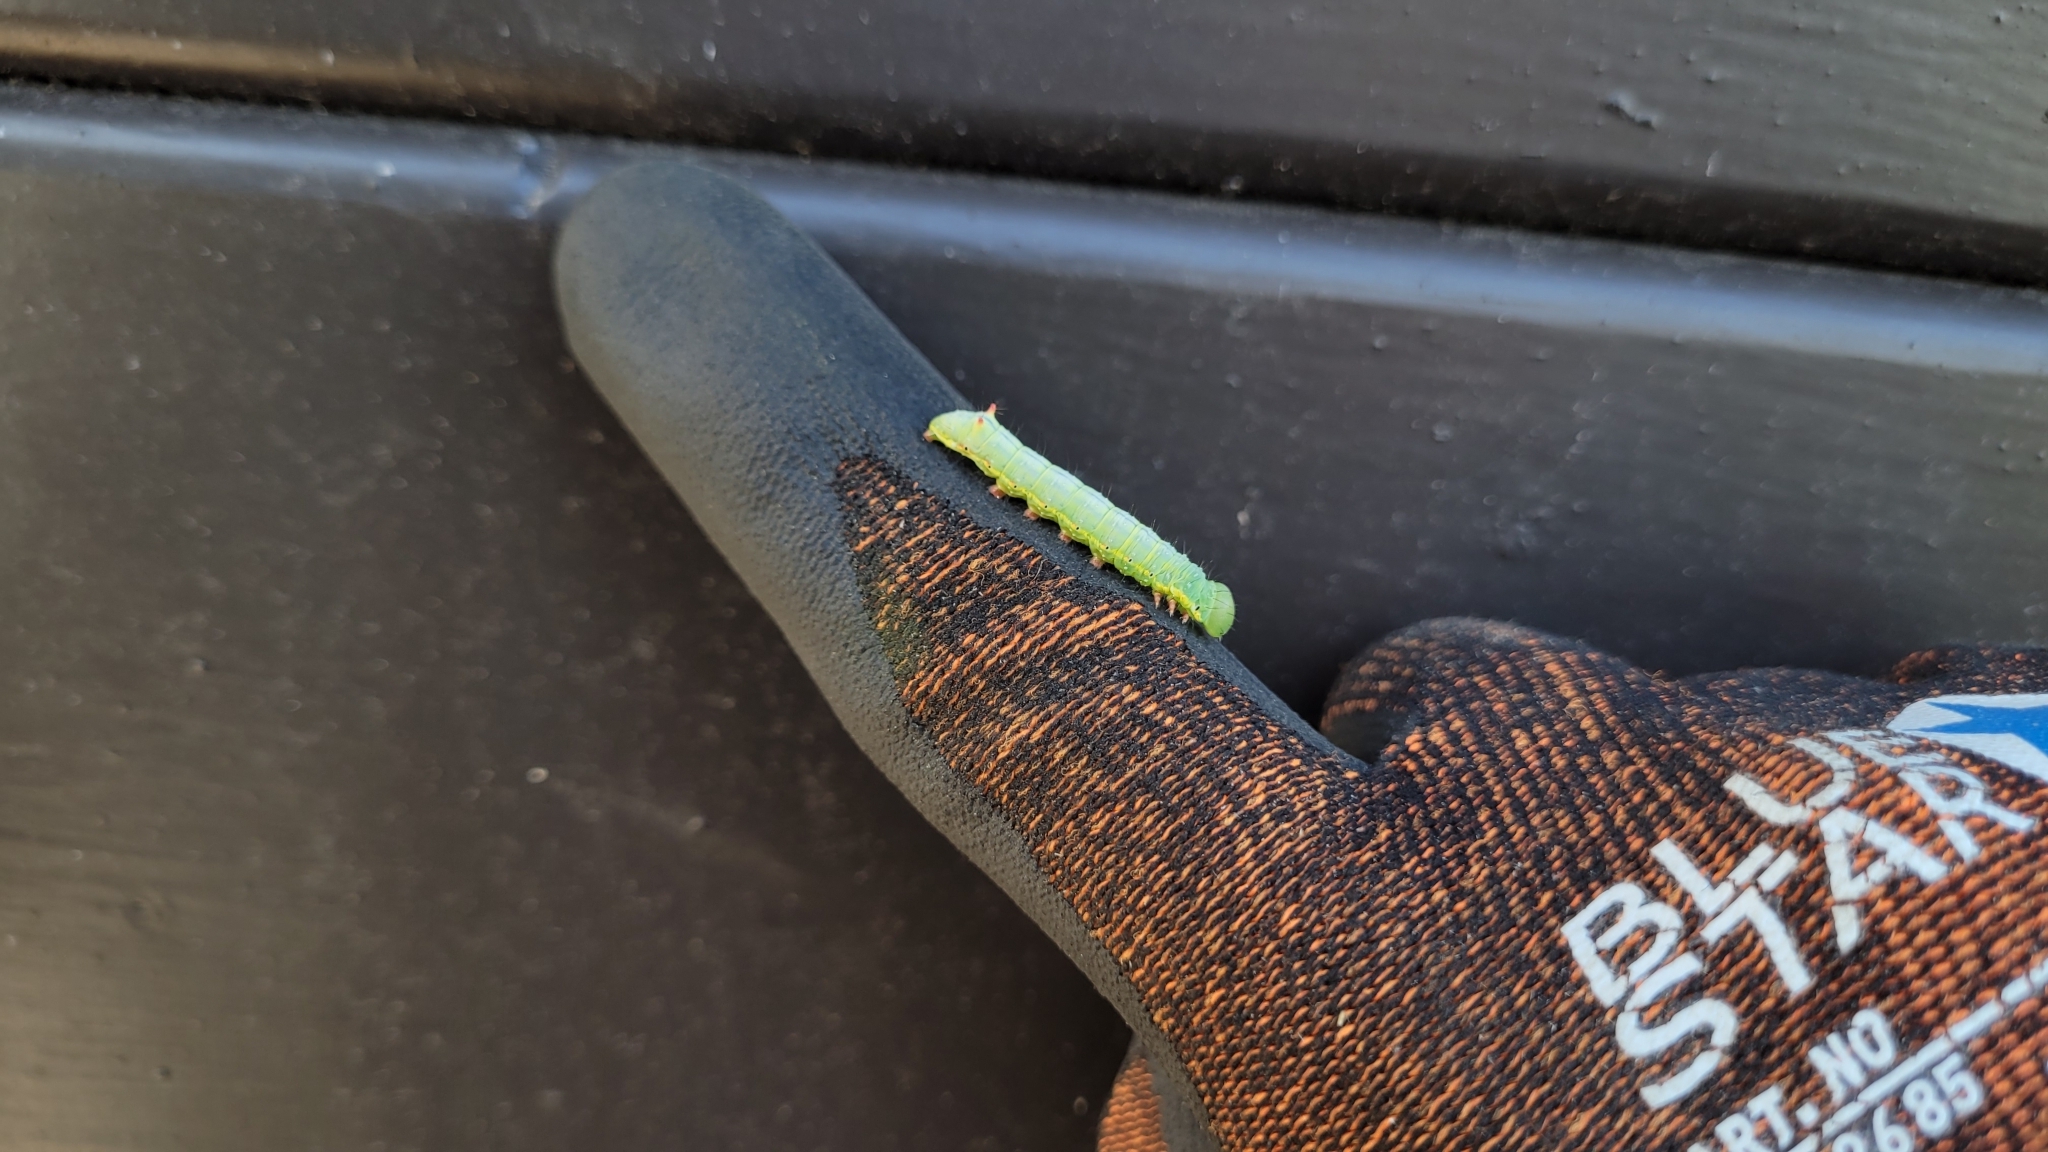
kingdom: Animalia
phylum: Arthropoda
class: Insecta
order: Lepidoptera
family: Notodontidae
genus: Ptilodon
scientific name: Ptilodon capucina
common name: Coxcomb prominent
